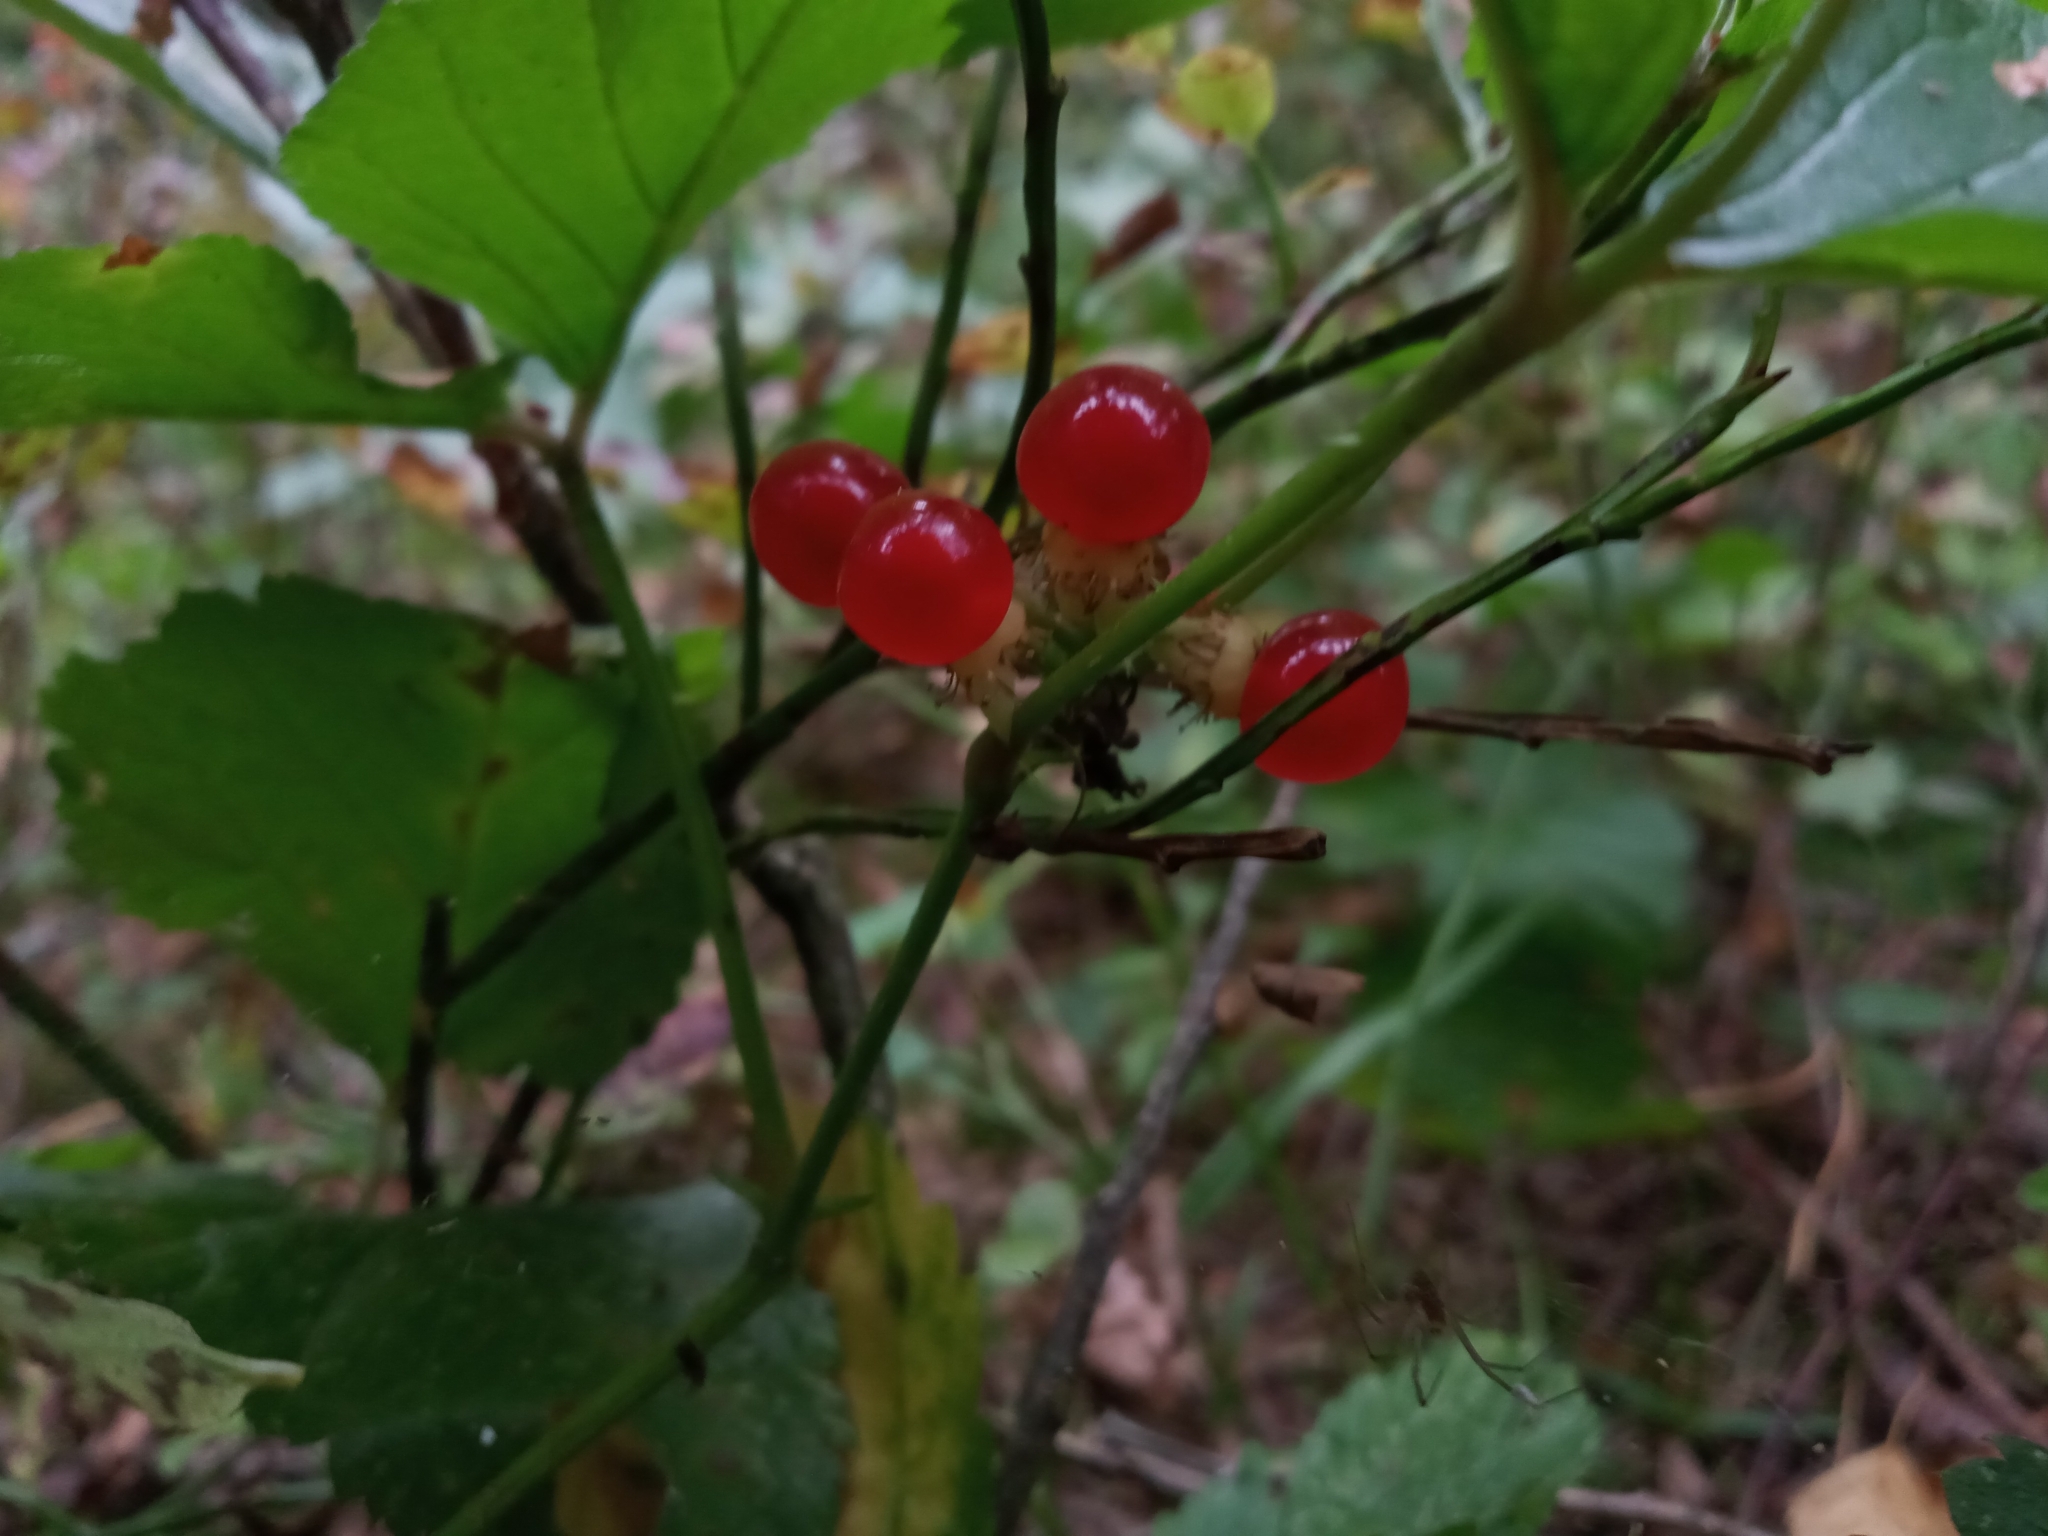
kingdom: Plantae
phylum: Tracheophyta
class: Magnoliopsida
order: Rosales
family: Rosaceae
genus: Rubus
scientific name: Rubus saxatilis
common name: Stone bramble
